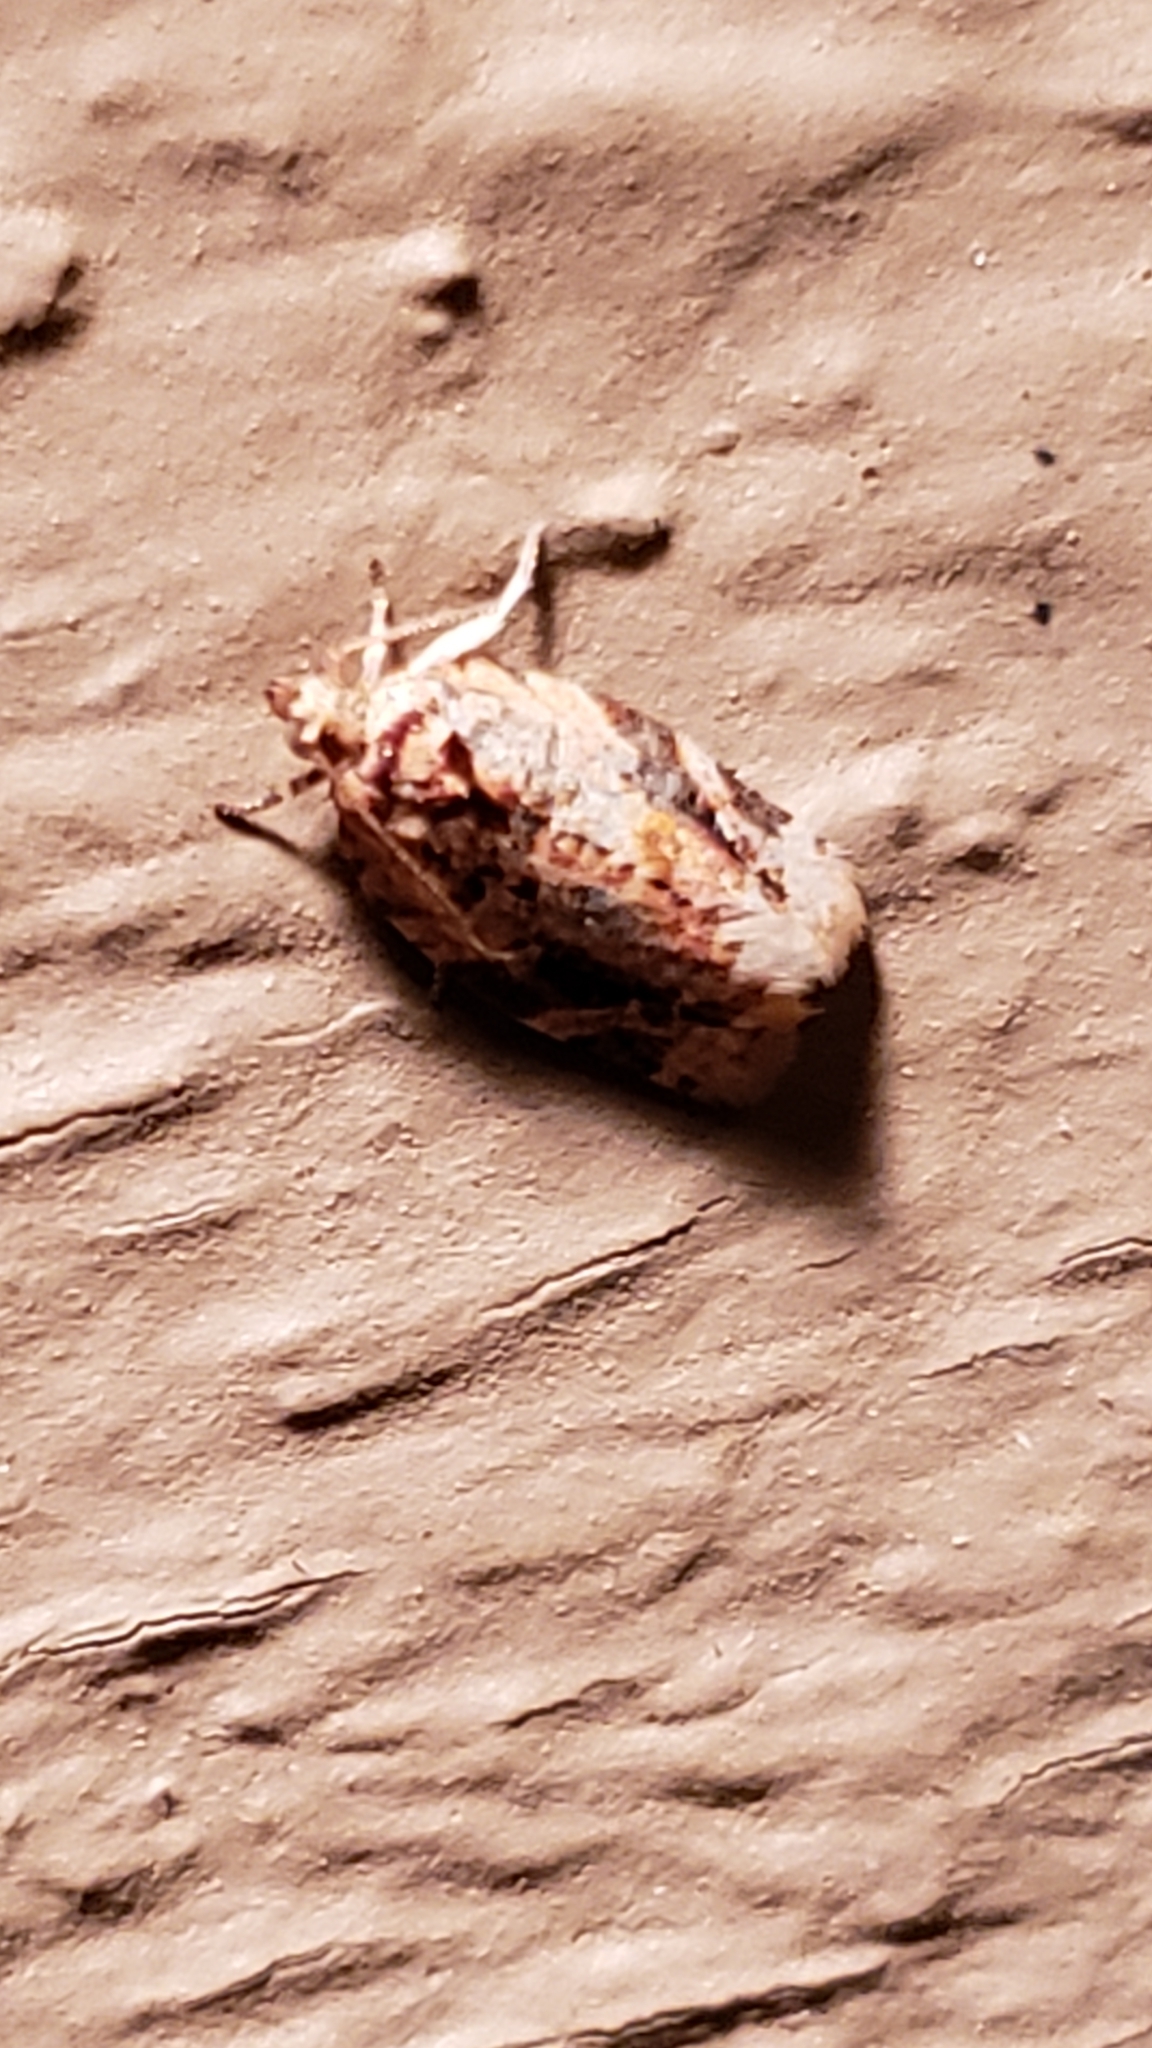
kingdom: Animalia
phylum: Arthropoda
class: Insecta
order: Lepidoptera
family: Tortricidae
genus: Argyrotaenia
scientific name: Argyrotaenia velutinana
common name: Red-banded leafroller moth
